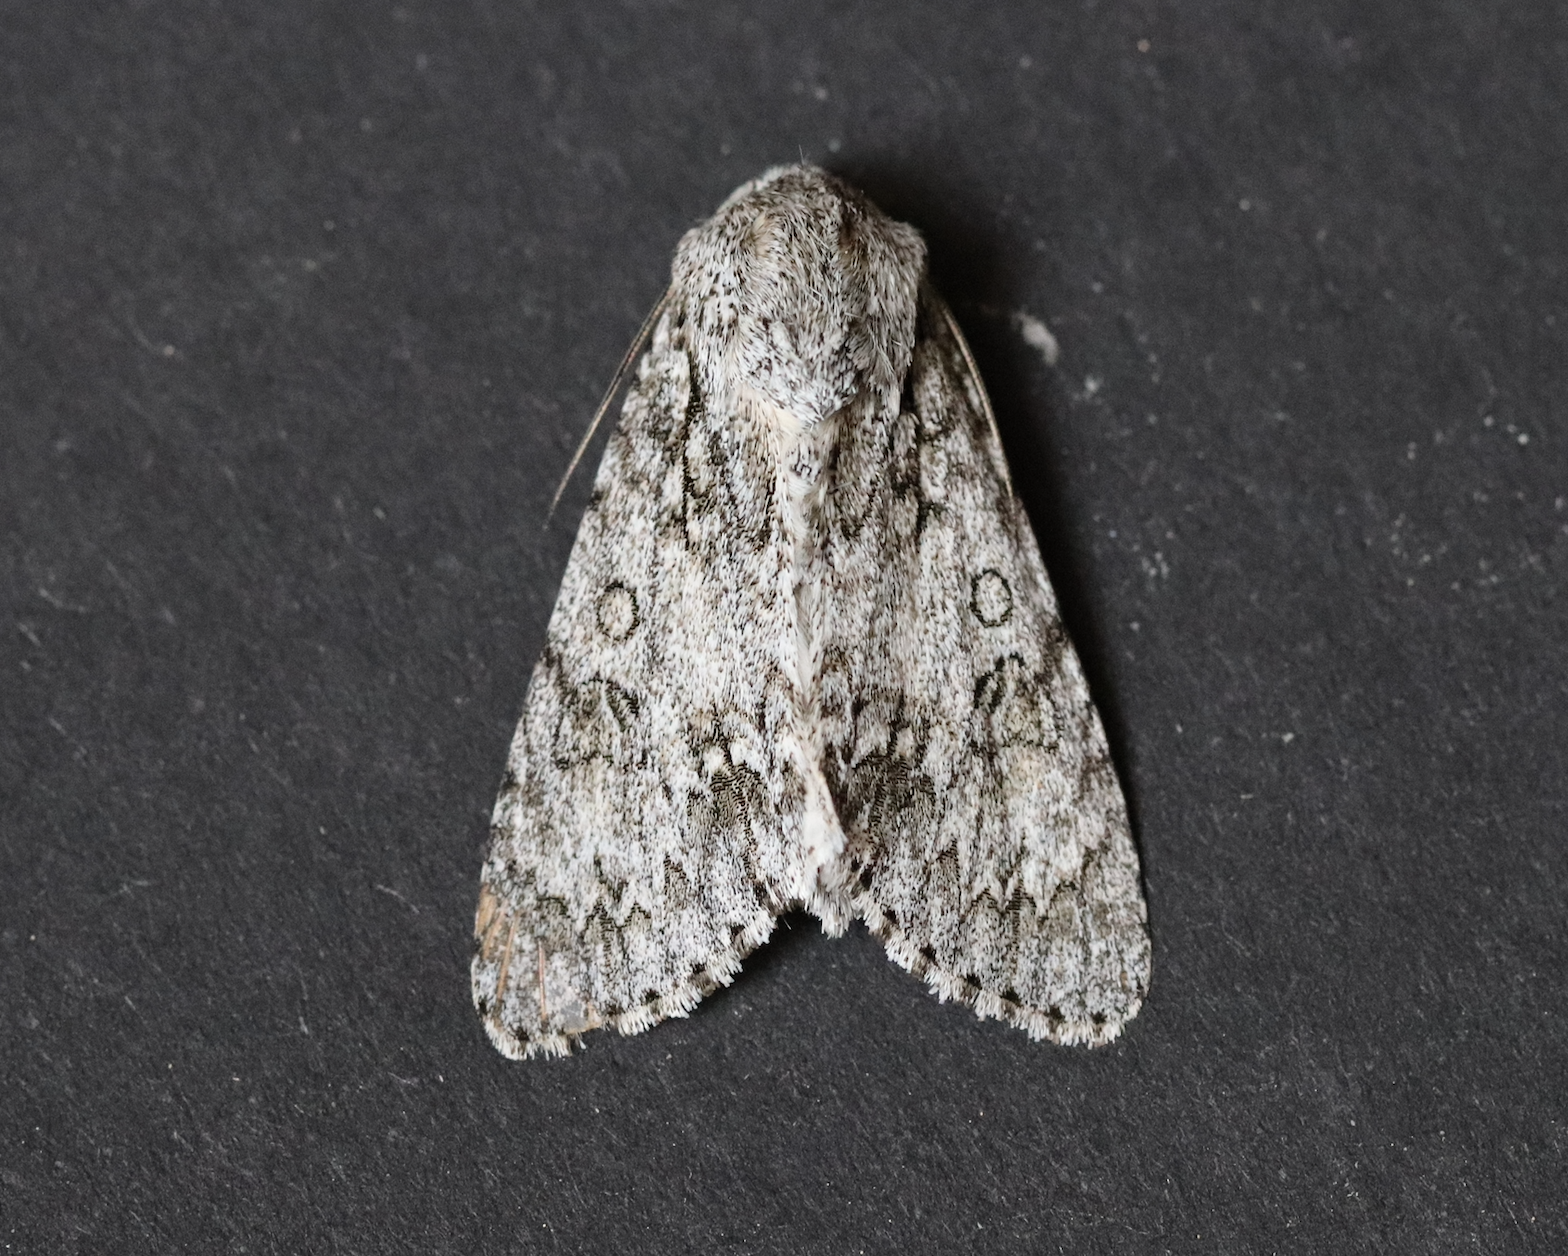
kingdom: Animalia
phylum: Arthropoda
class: Insecta
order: Lepidoptera
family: Noctuidae
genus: Acronicta
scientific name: Acronicta aceris
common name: Sycamore
